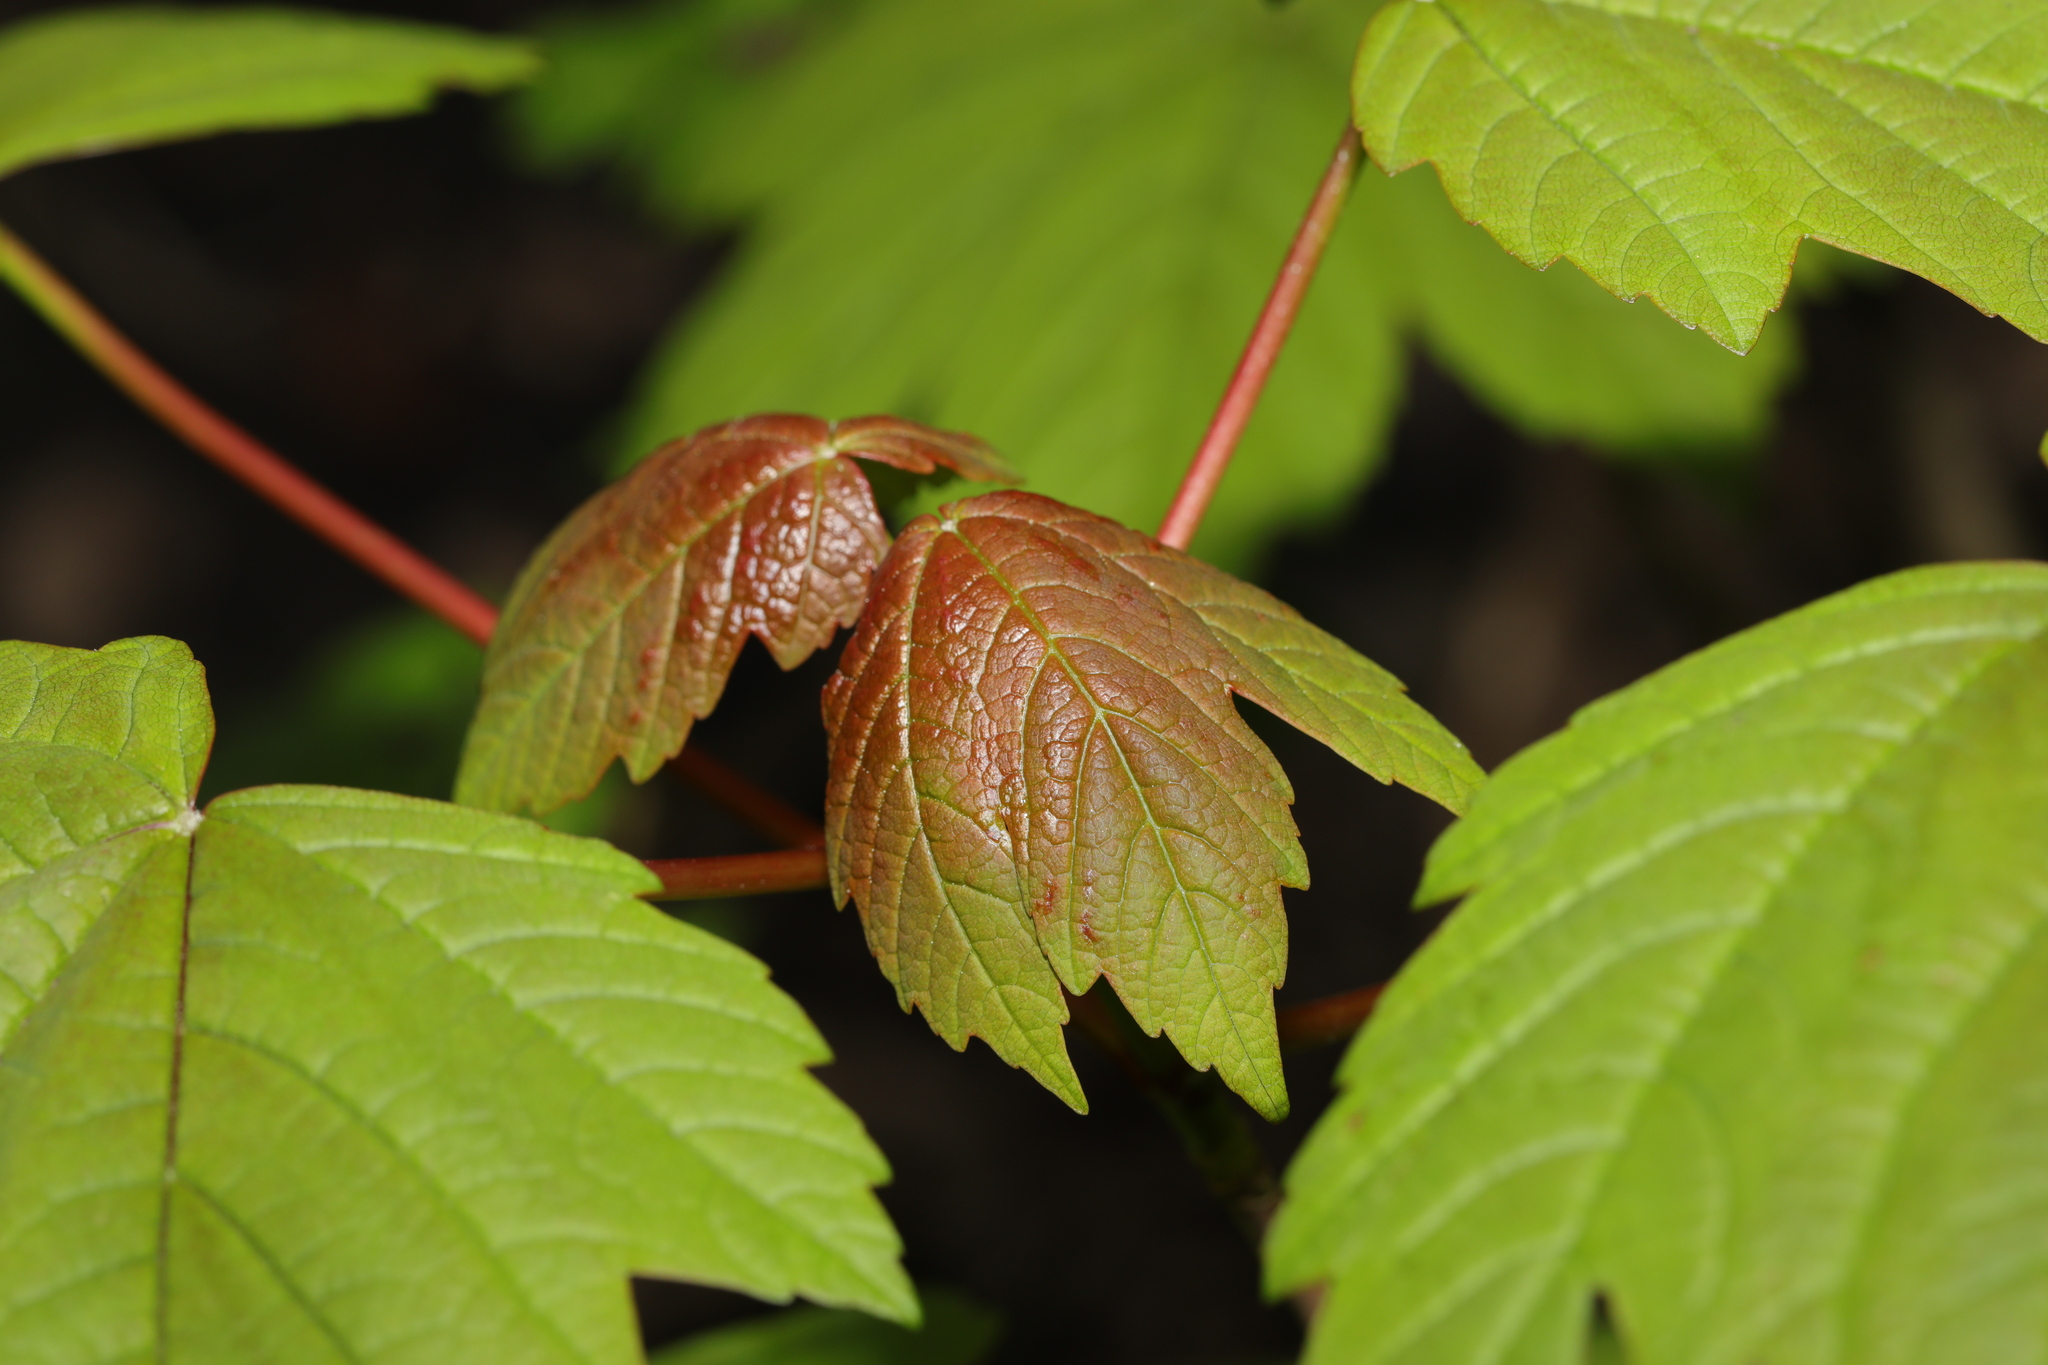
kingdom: Plantae
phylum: Tracheophyta
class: Magnoliopsida
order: Sapindales
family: Sapindaceae
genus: Acer
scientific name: Acer pseudoplatanus
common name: Sycamore
